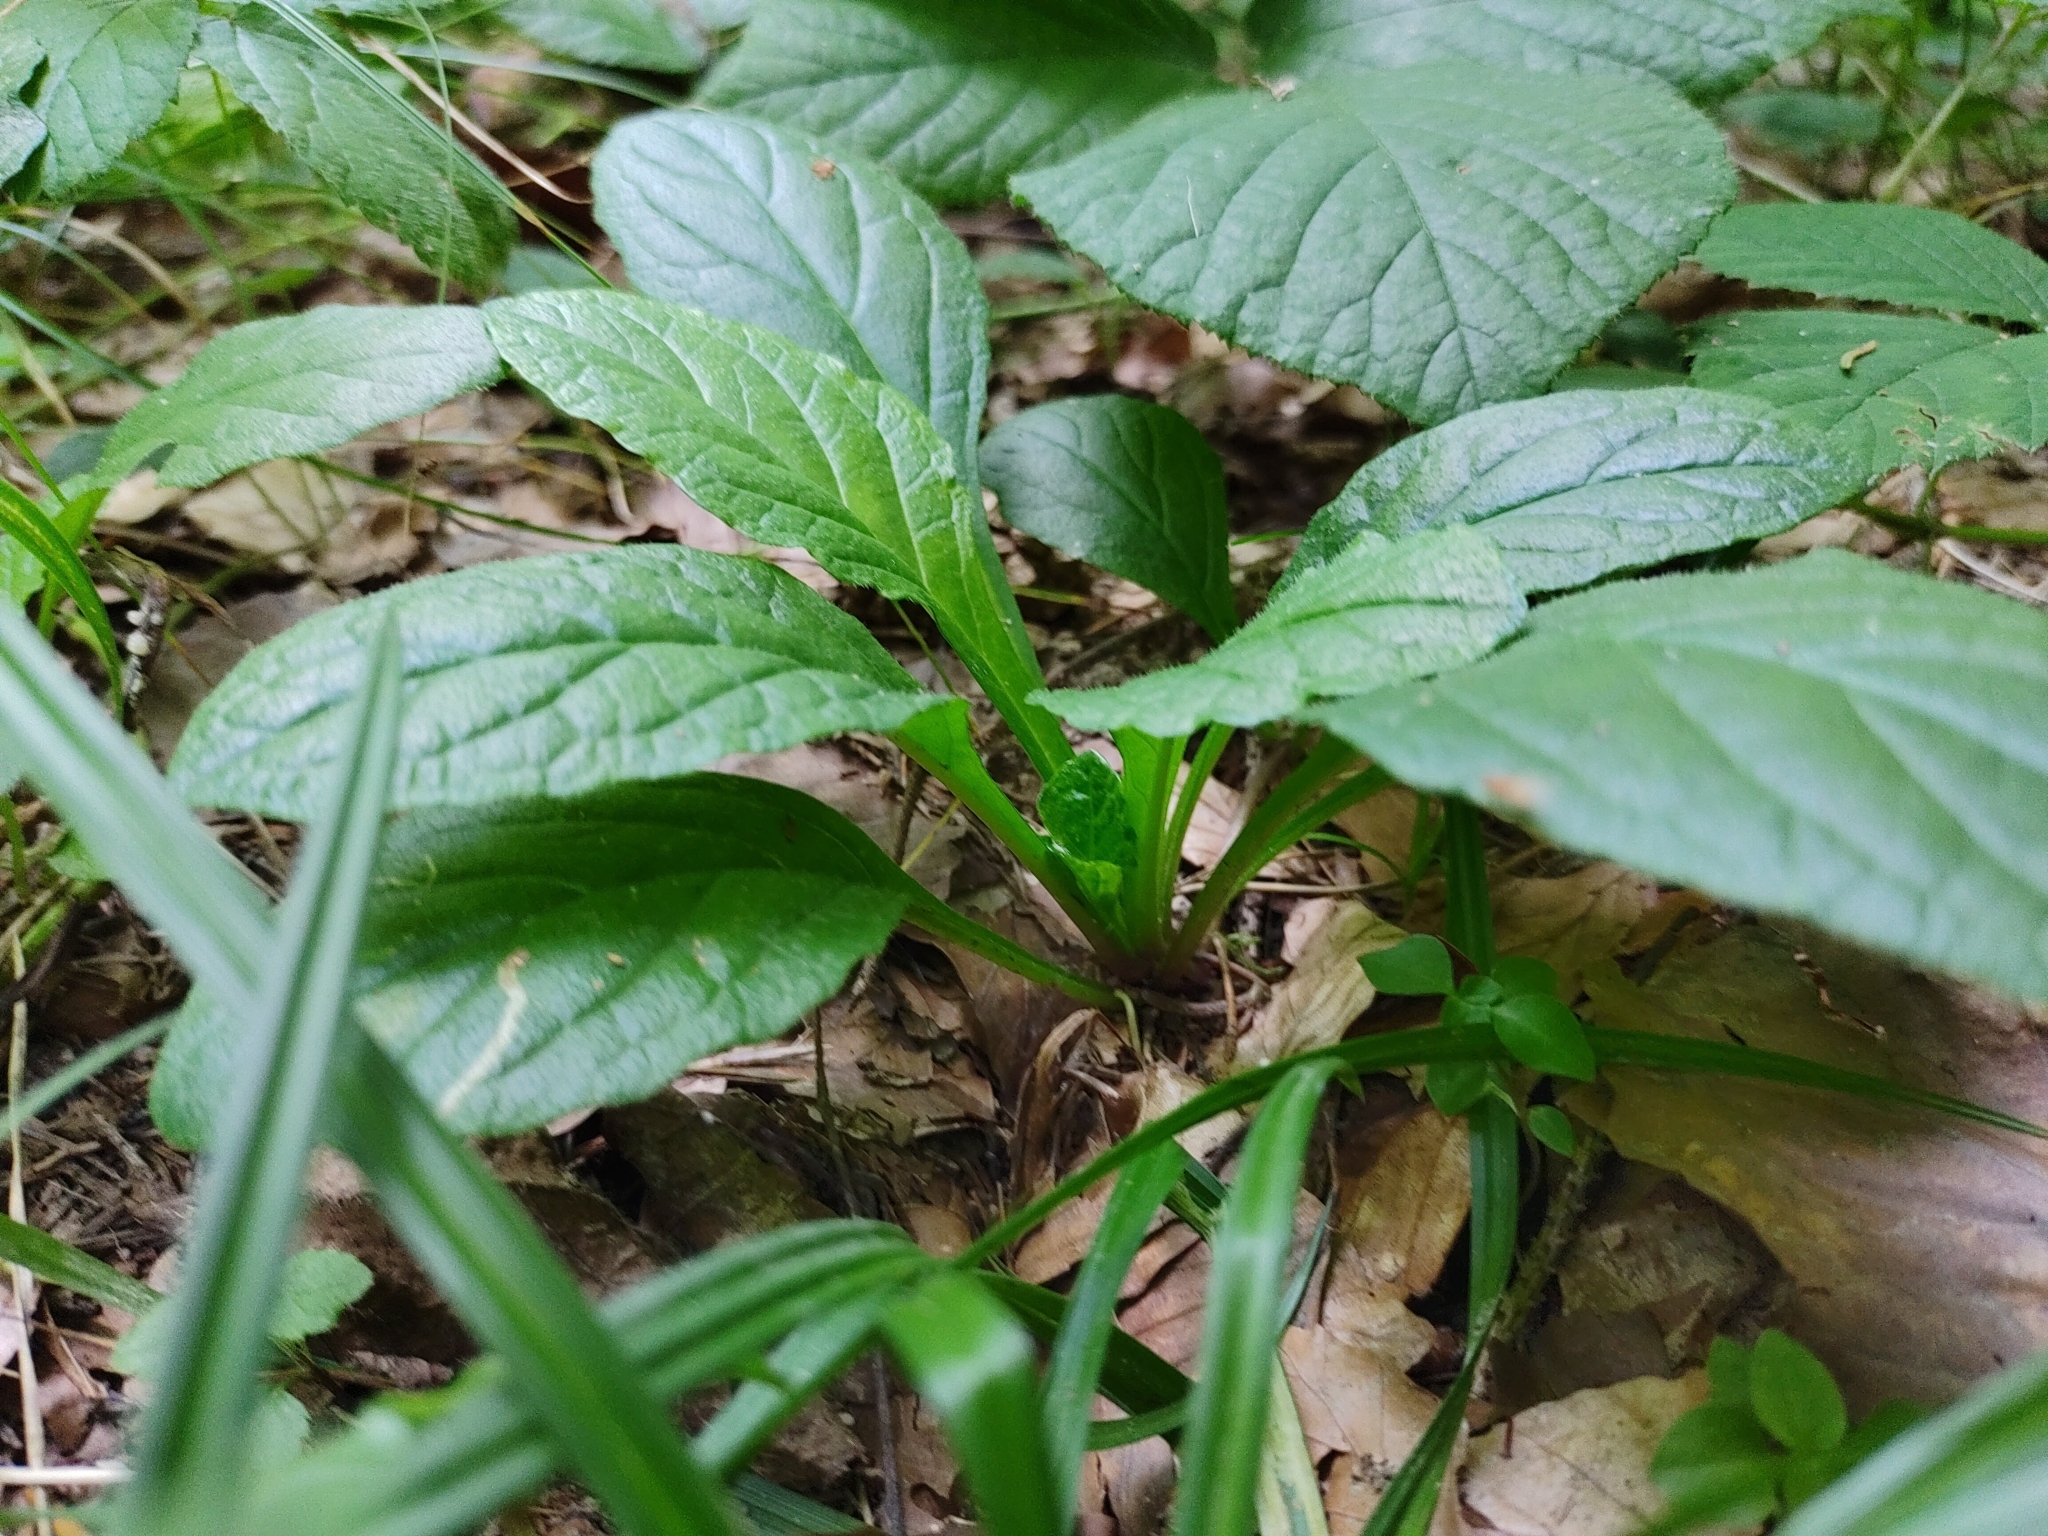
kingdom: Plantae
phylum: Tracheophyta
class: Magnoliopsida
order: Lamiales
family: Lamiaceae
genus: Ajuga
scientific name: Ajuga reptans
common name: Bugle
